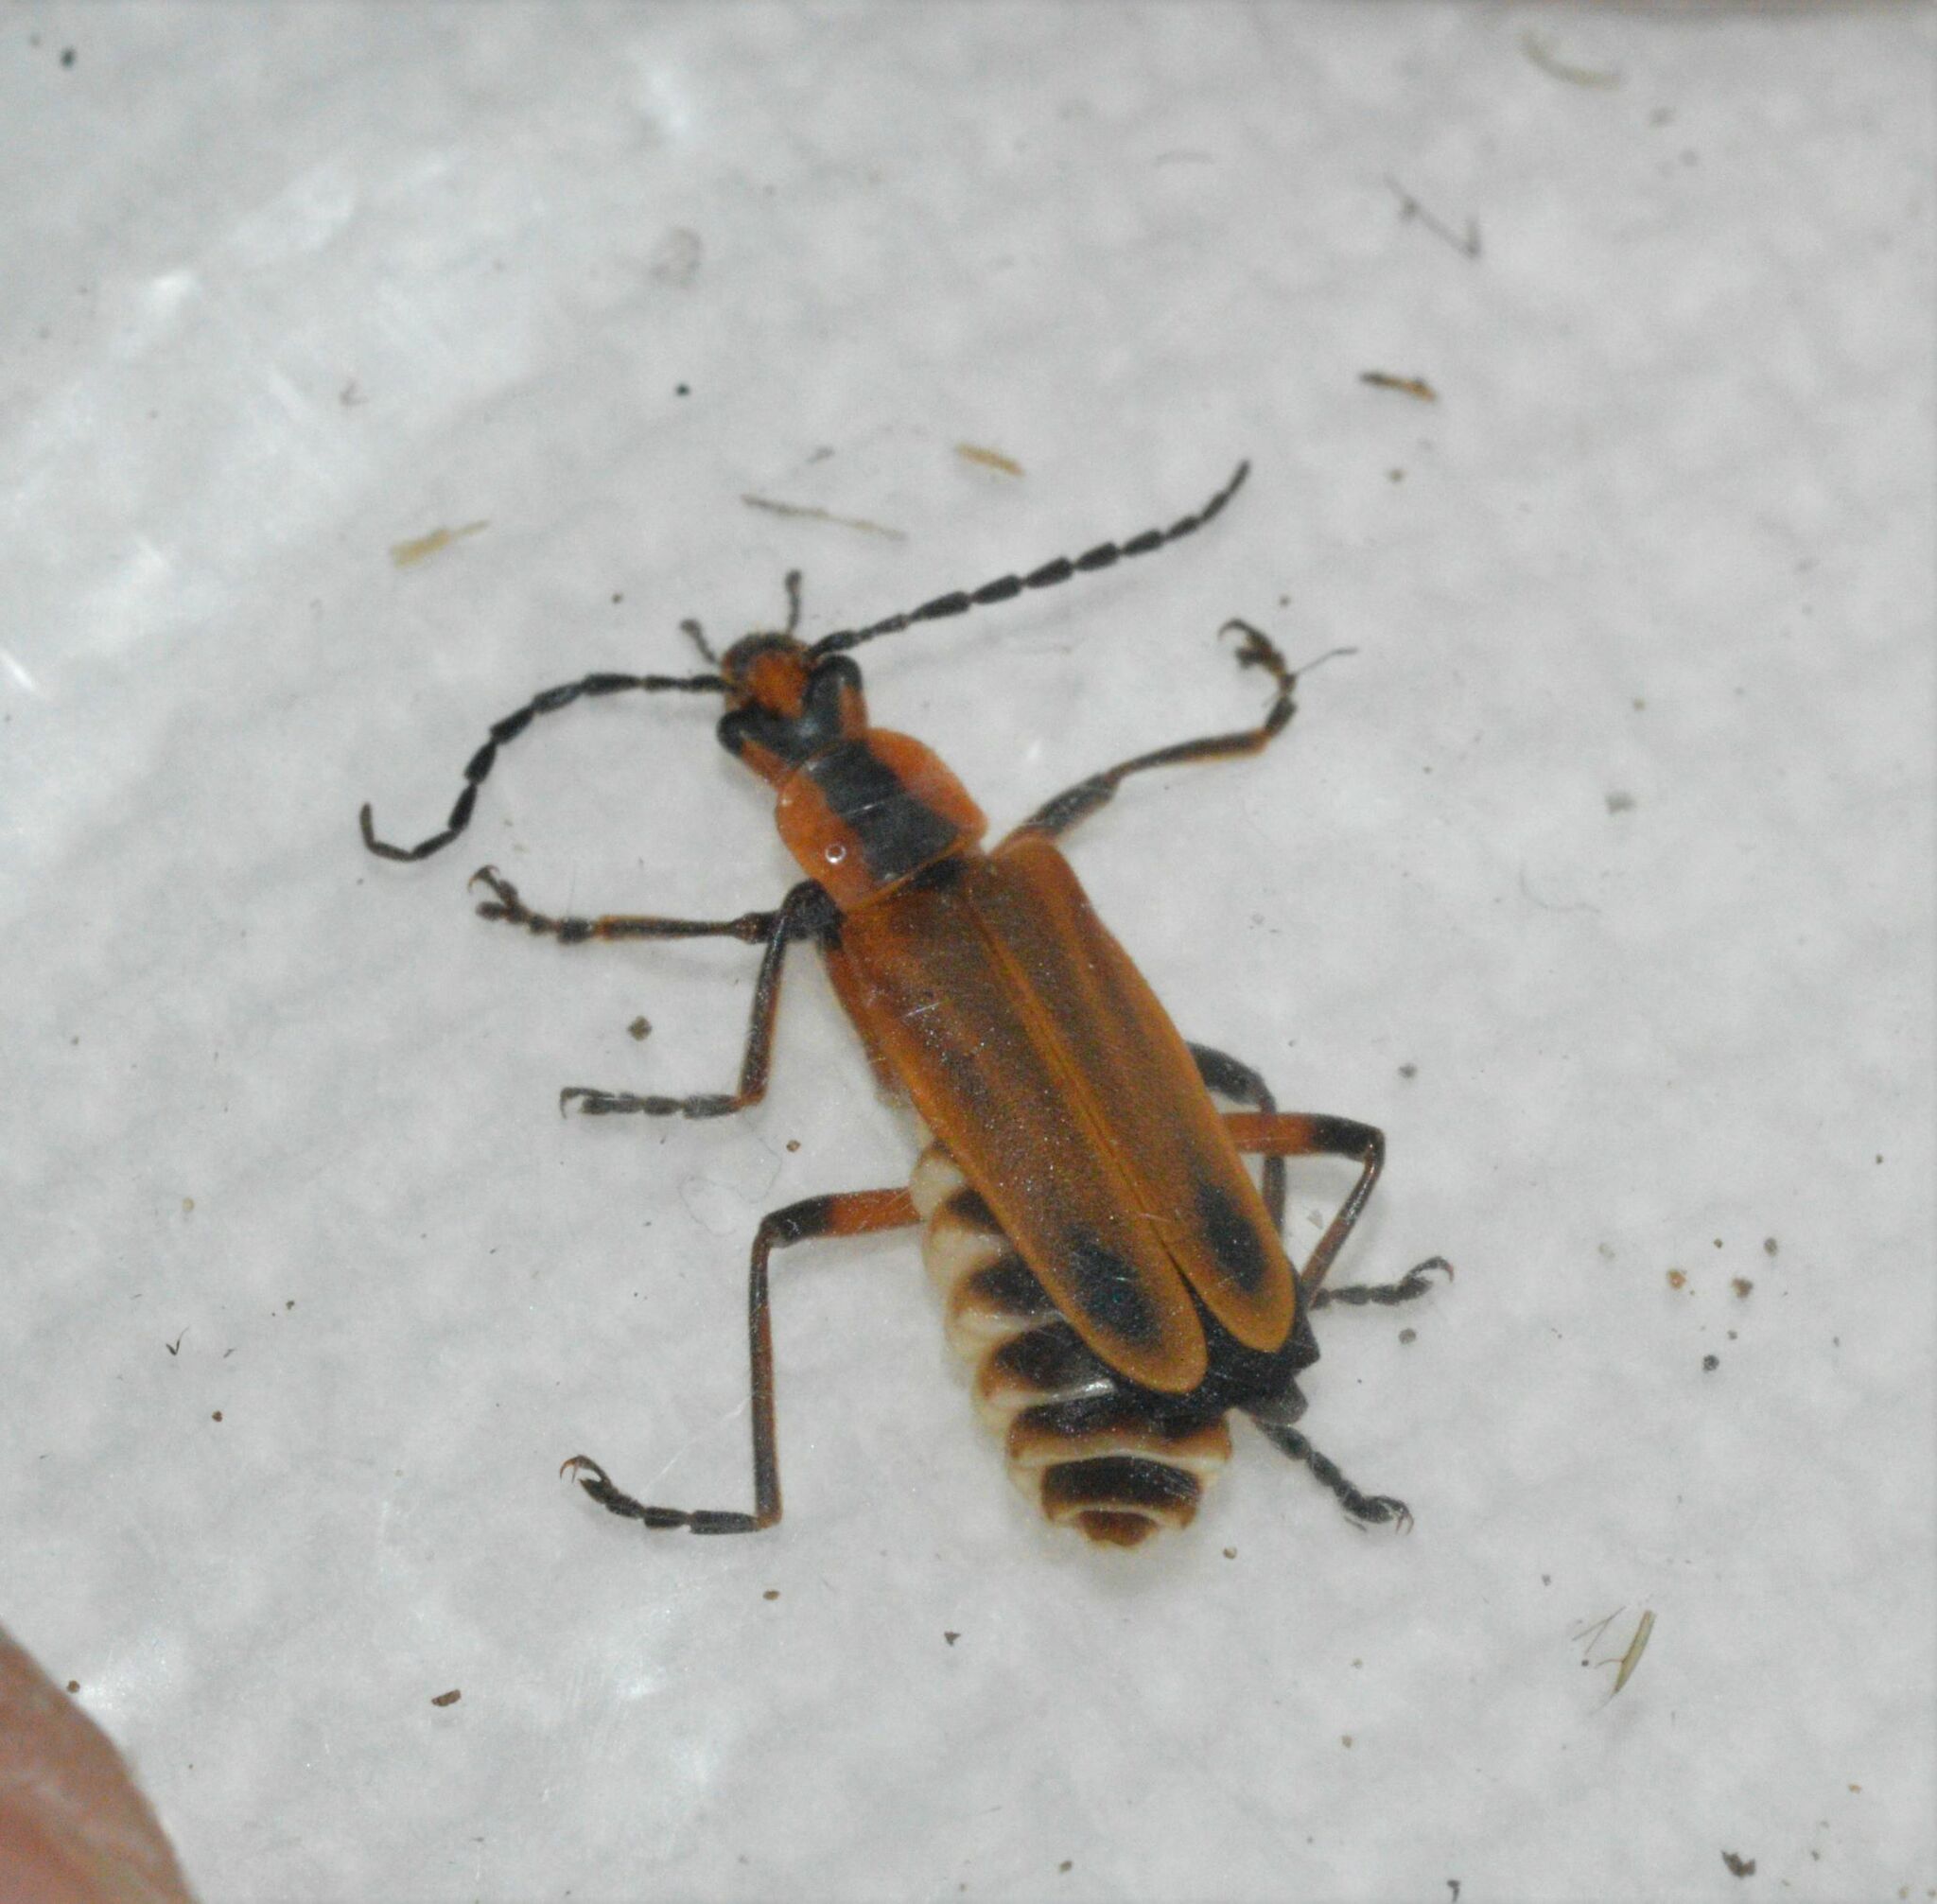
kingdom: Animalia
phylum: Arthropoda
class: Insecta
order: Coleoptera
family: Cantharidae
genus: Chauliognathus
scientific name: Chauliognathus marginatus
